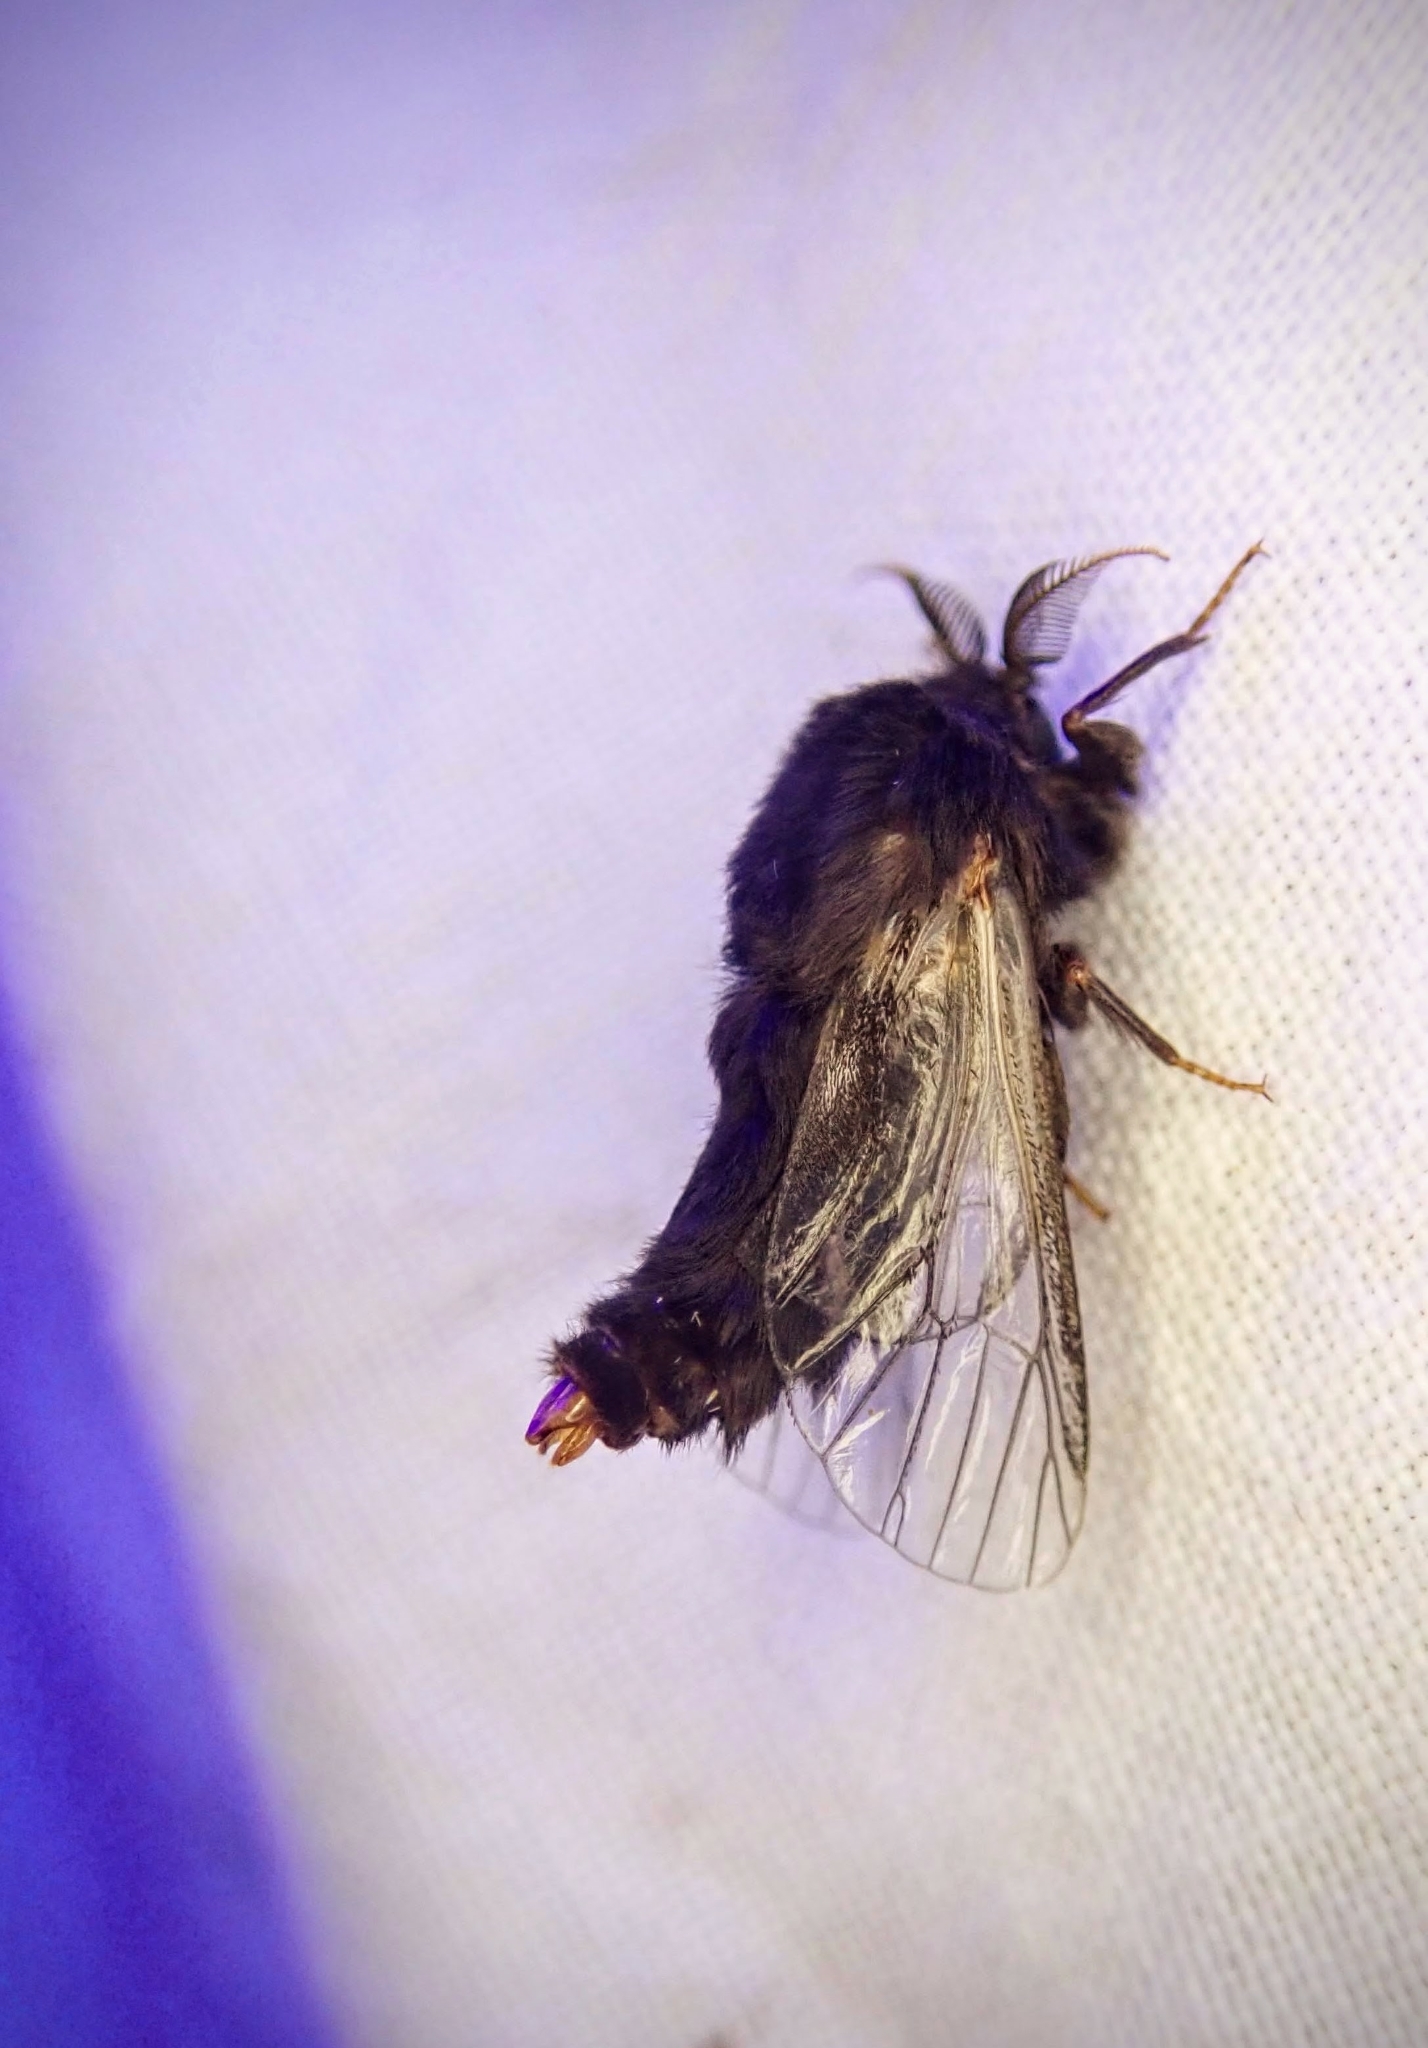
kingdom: Animalia
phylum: Arthropoda
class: Insecta
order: Lepidoptera
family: Psychidae
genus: Thyridopteryx
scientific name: Thyridopteryx ephemeraeformis
